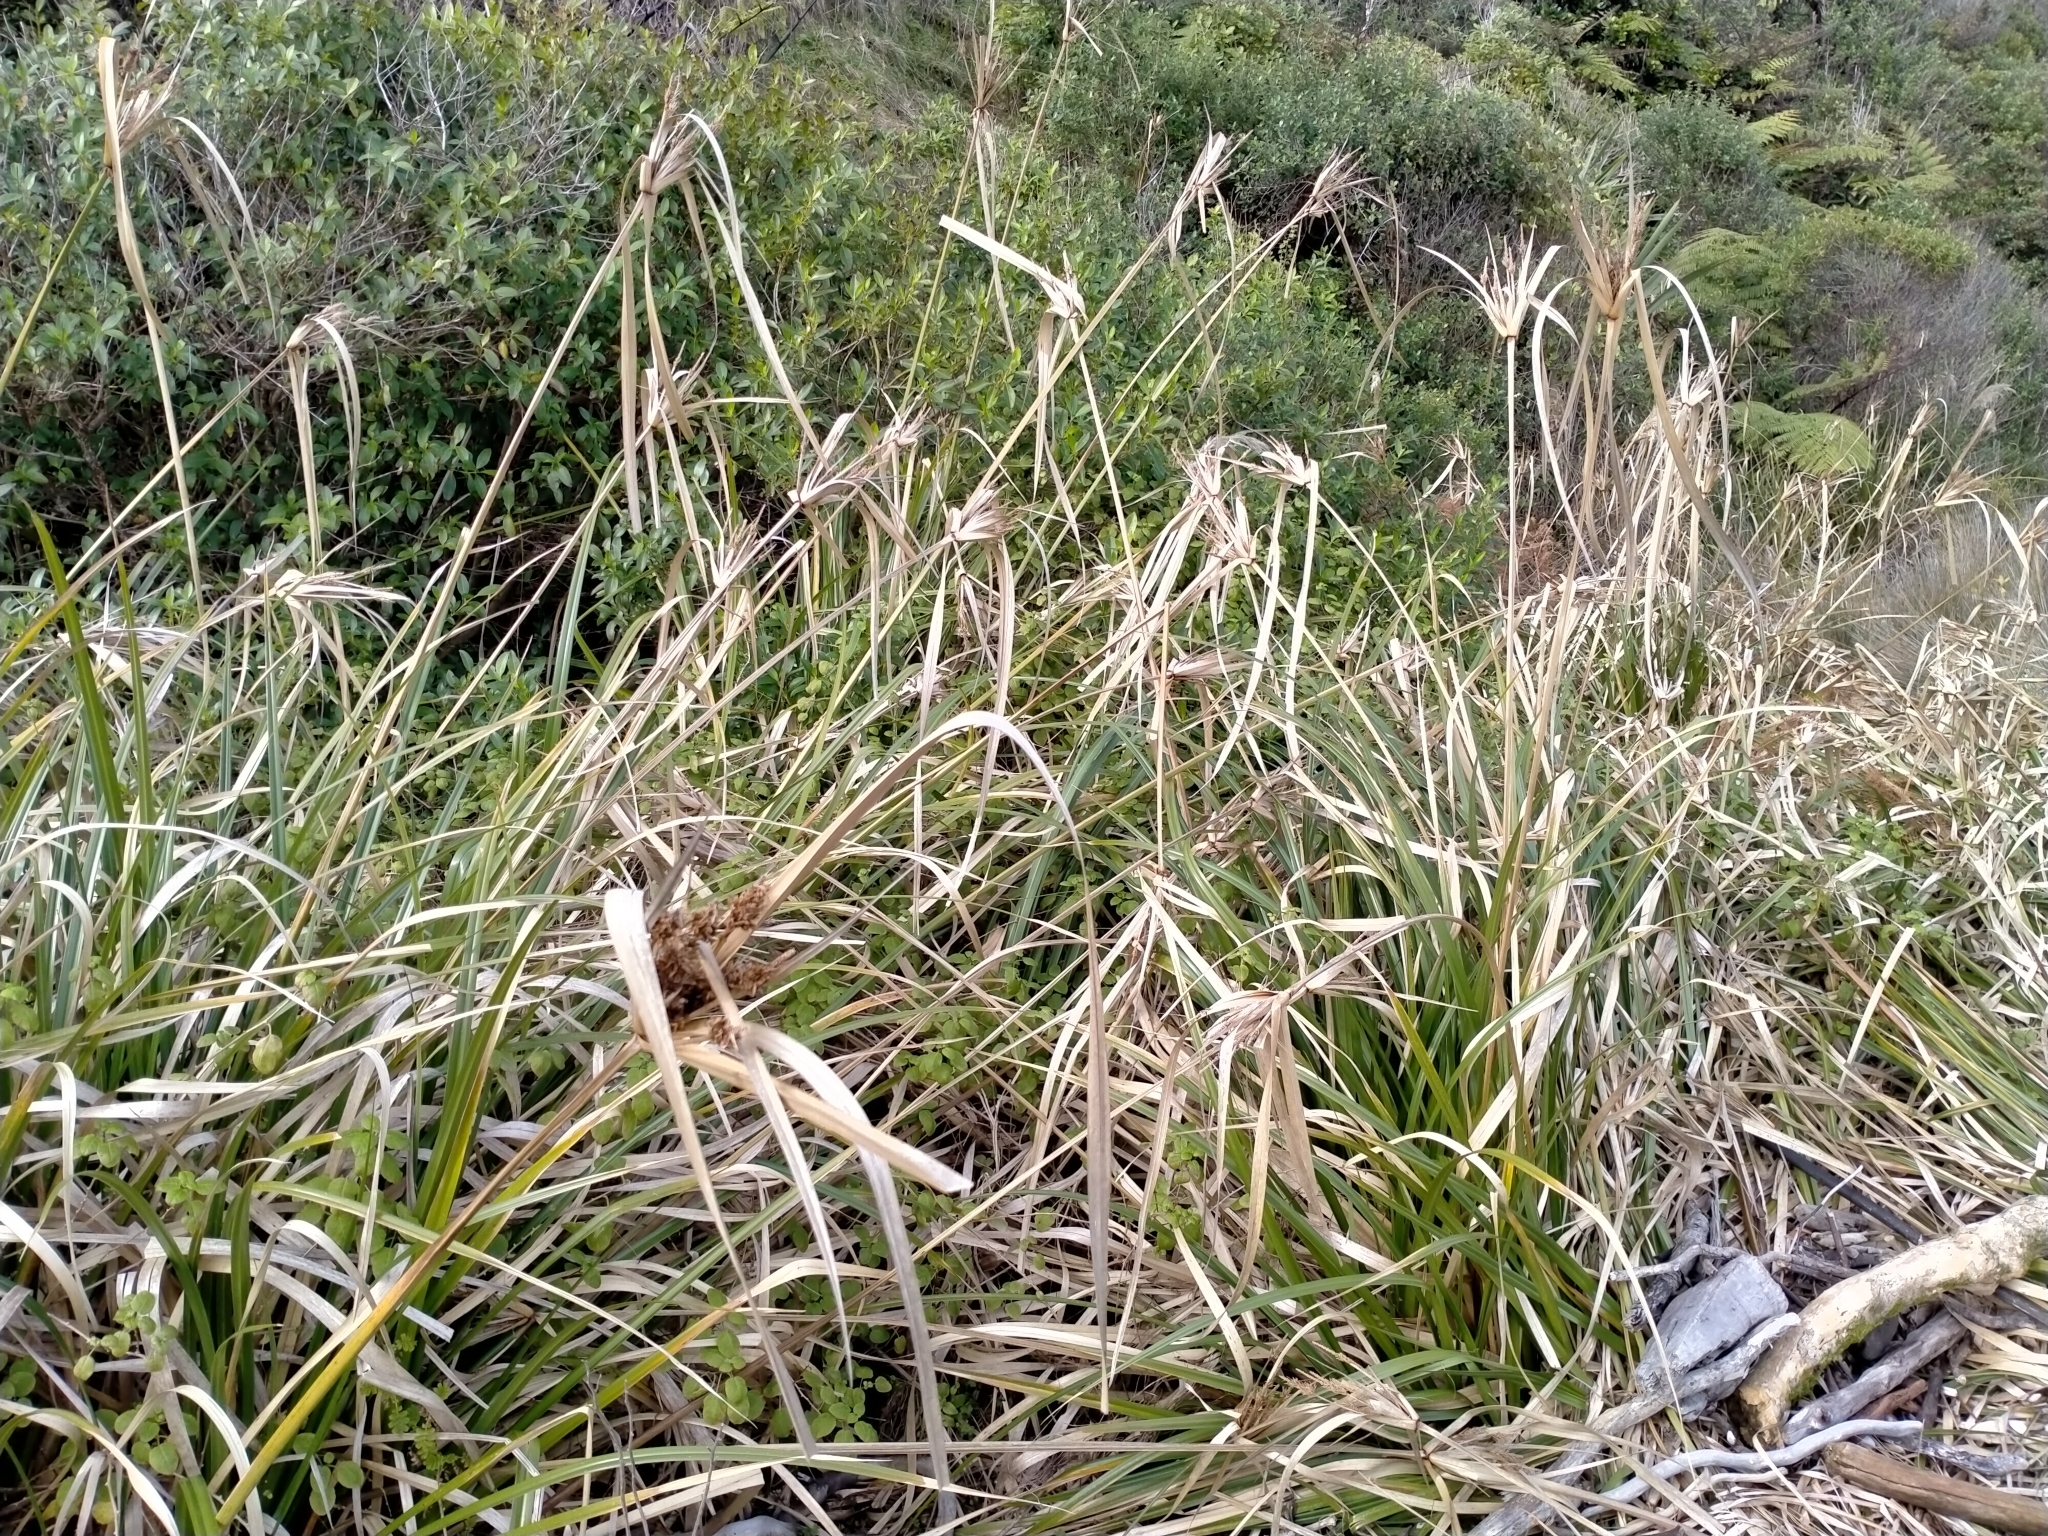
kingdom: Plantae
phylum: Tracheophyta
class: Liliopsida
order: Poales
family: Cyperaceae
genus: Cyperus
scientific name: Cyperus ustulatus
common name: Giant umbrella-sedge
